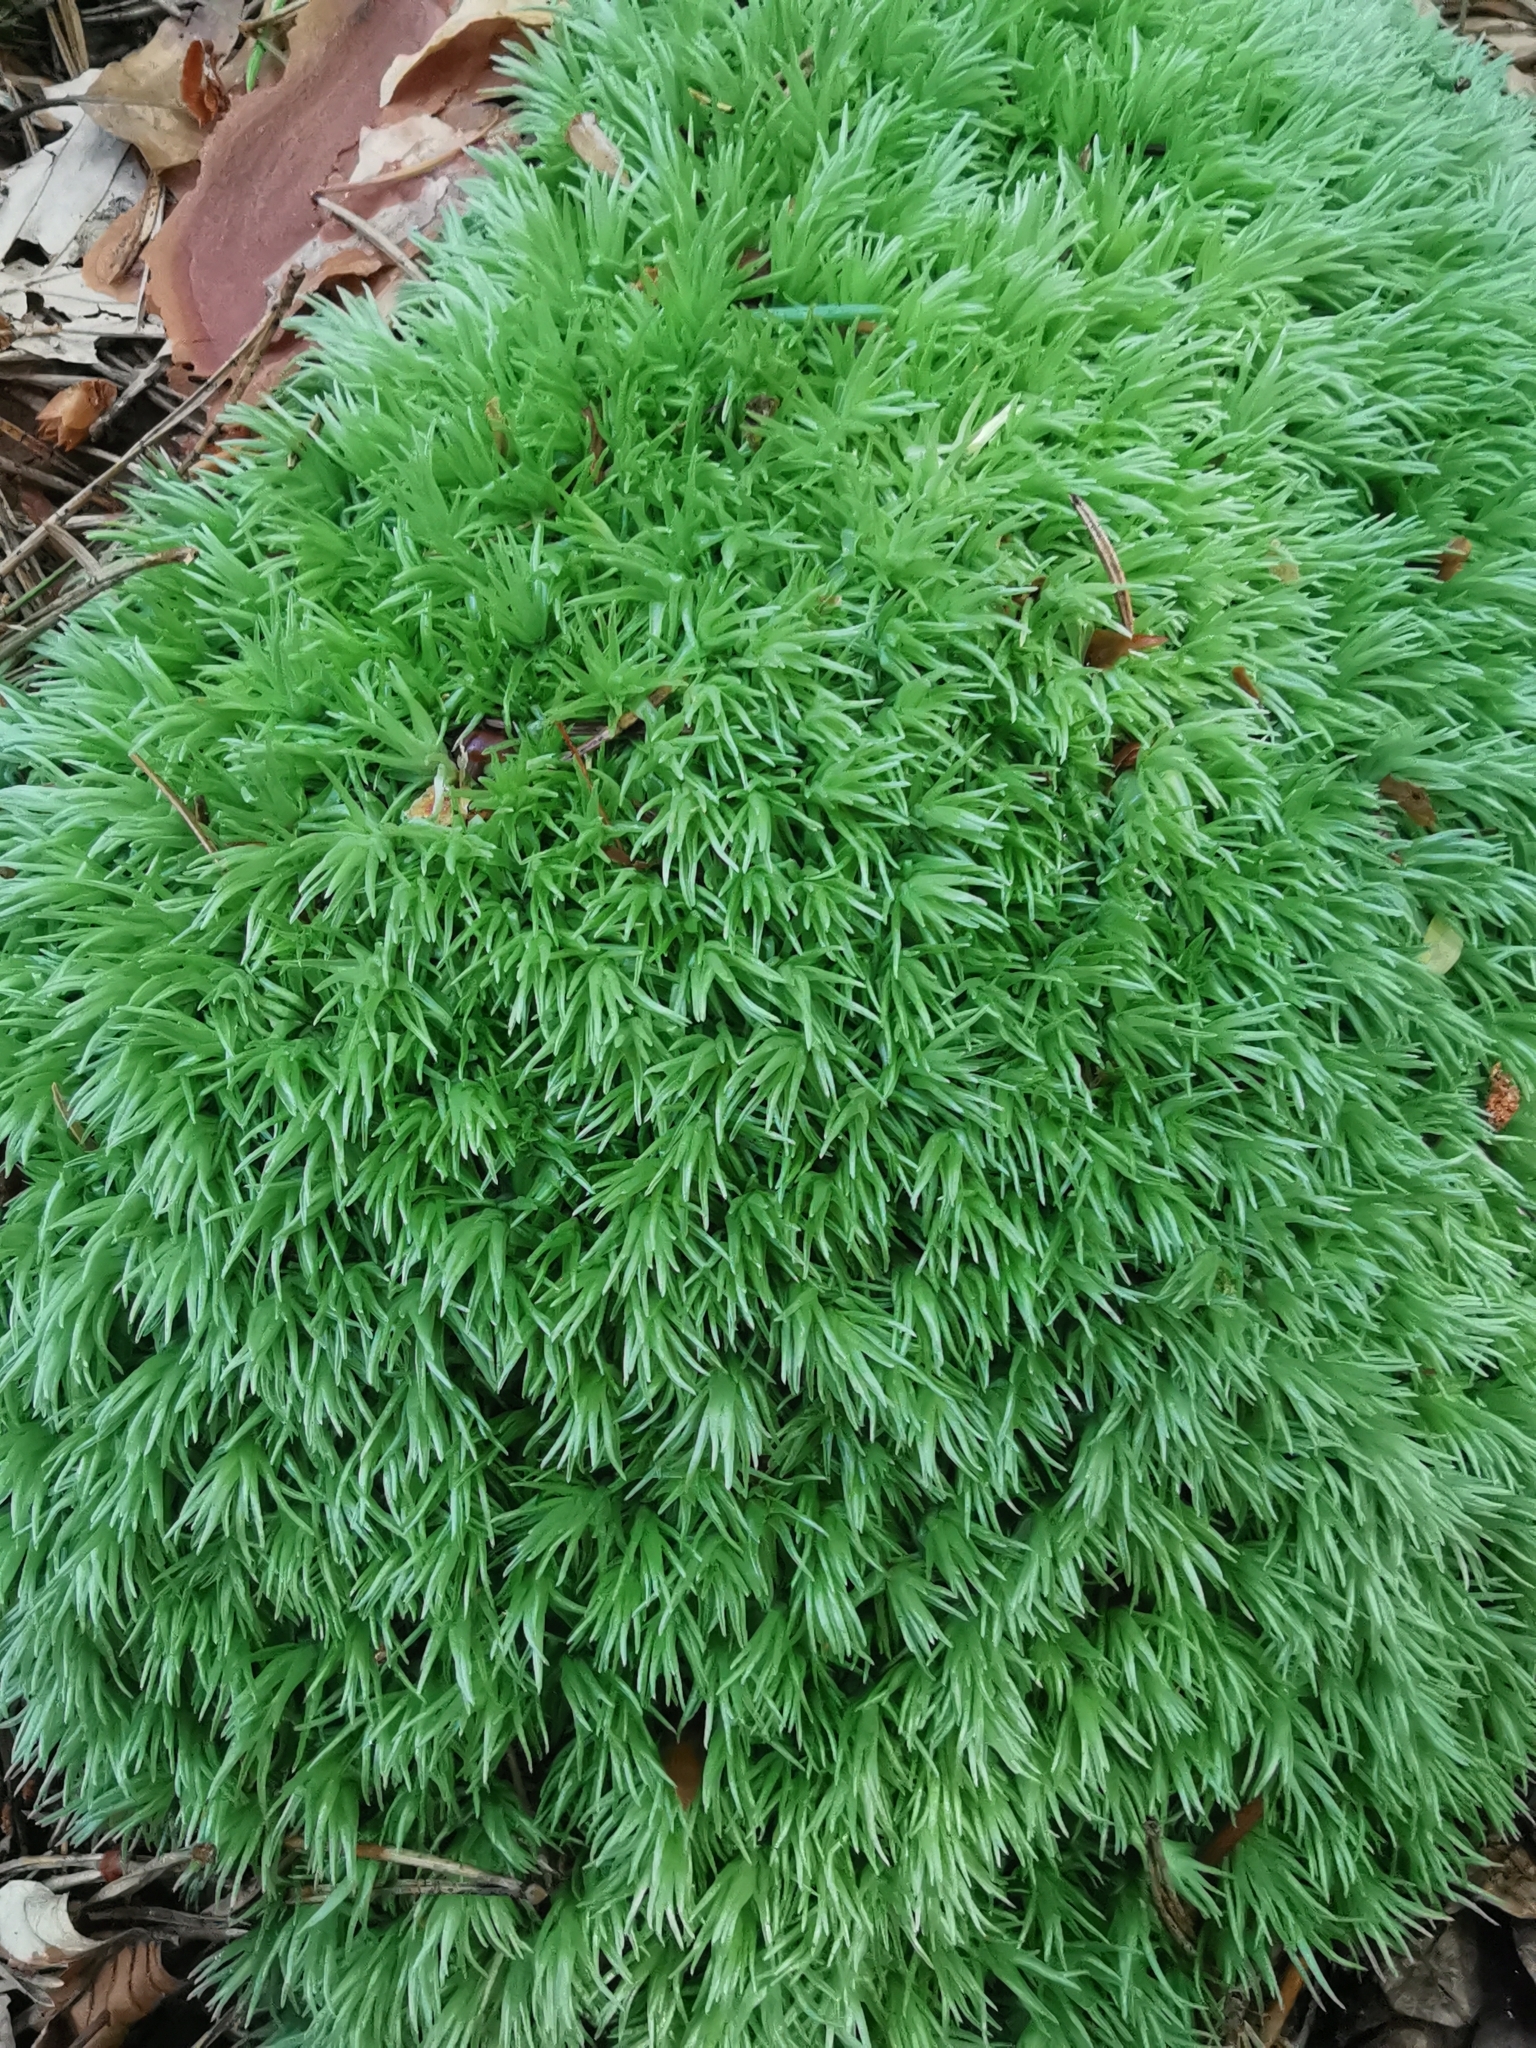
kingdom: Plantae
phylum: Bryophyta
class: Bryopsida
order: Dicranales
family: Leucobryaceae
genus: Leucobryum
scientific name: Leucobryum glaucum
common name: Large white-moss
